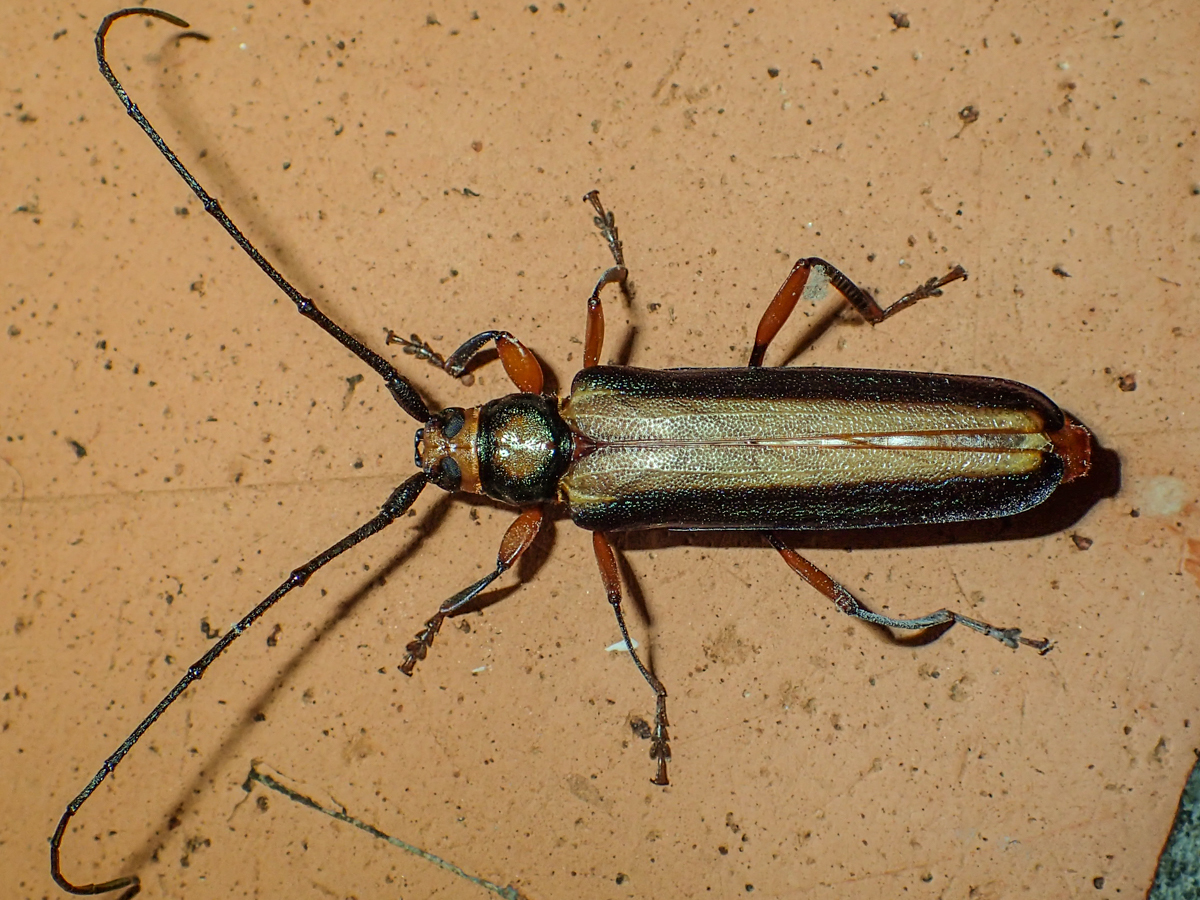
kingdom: Animalia
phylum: Arthropoda
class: Insecta
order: Coleoptera
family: Cerambycidae
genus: Xystrocera
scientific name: Xystrocera festiva
